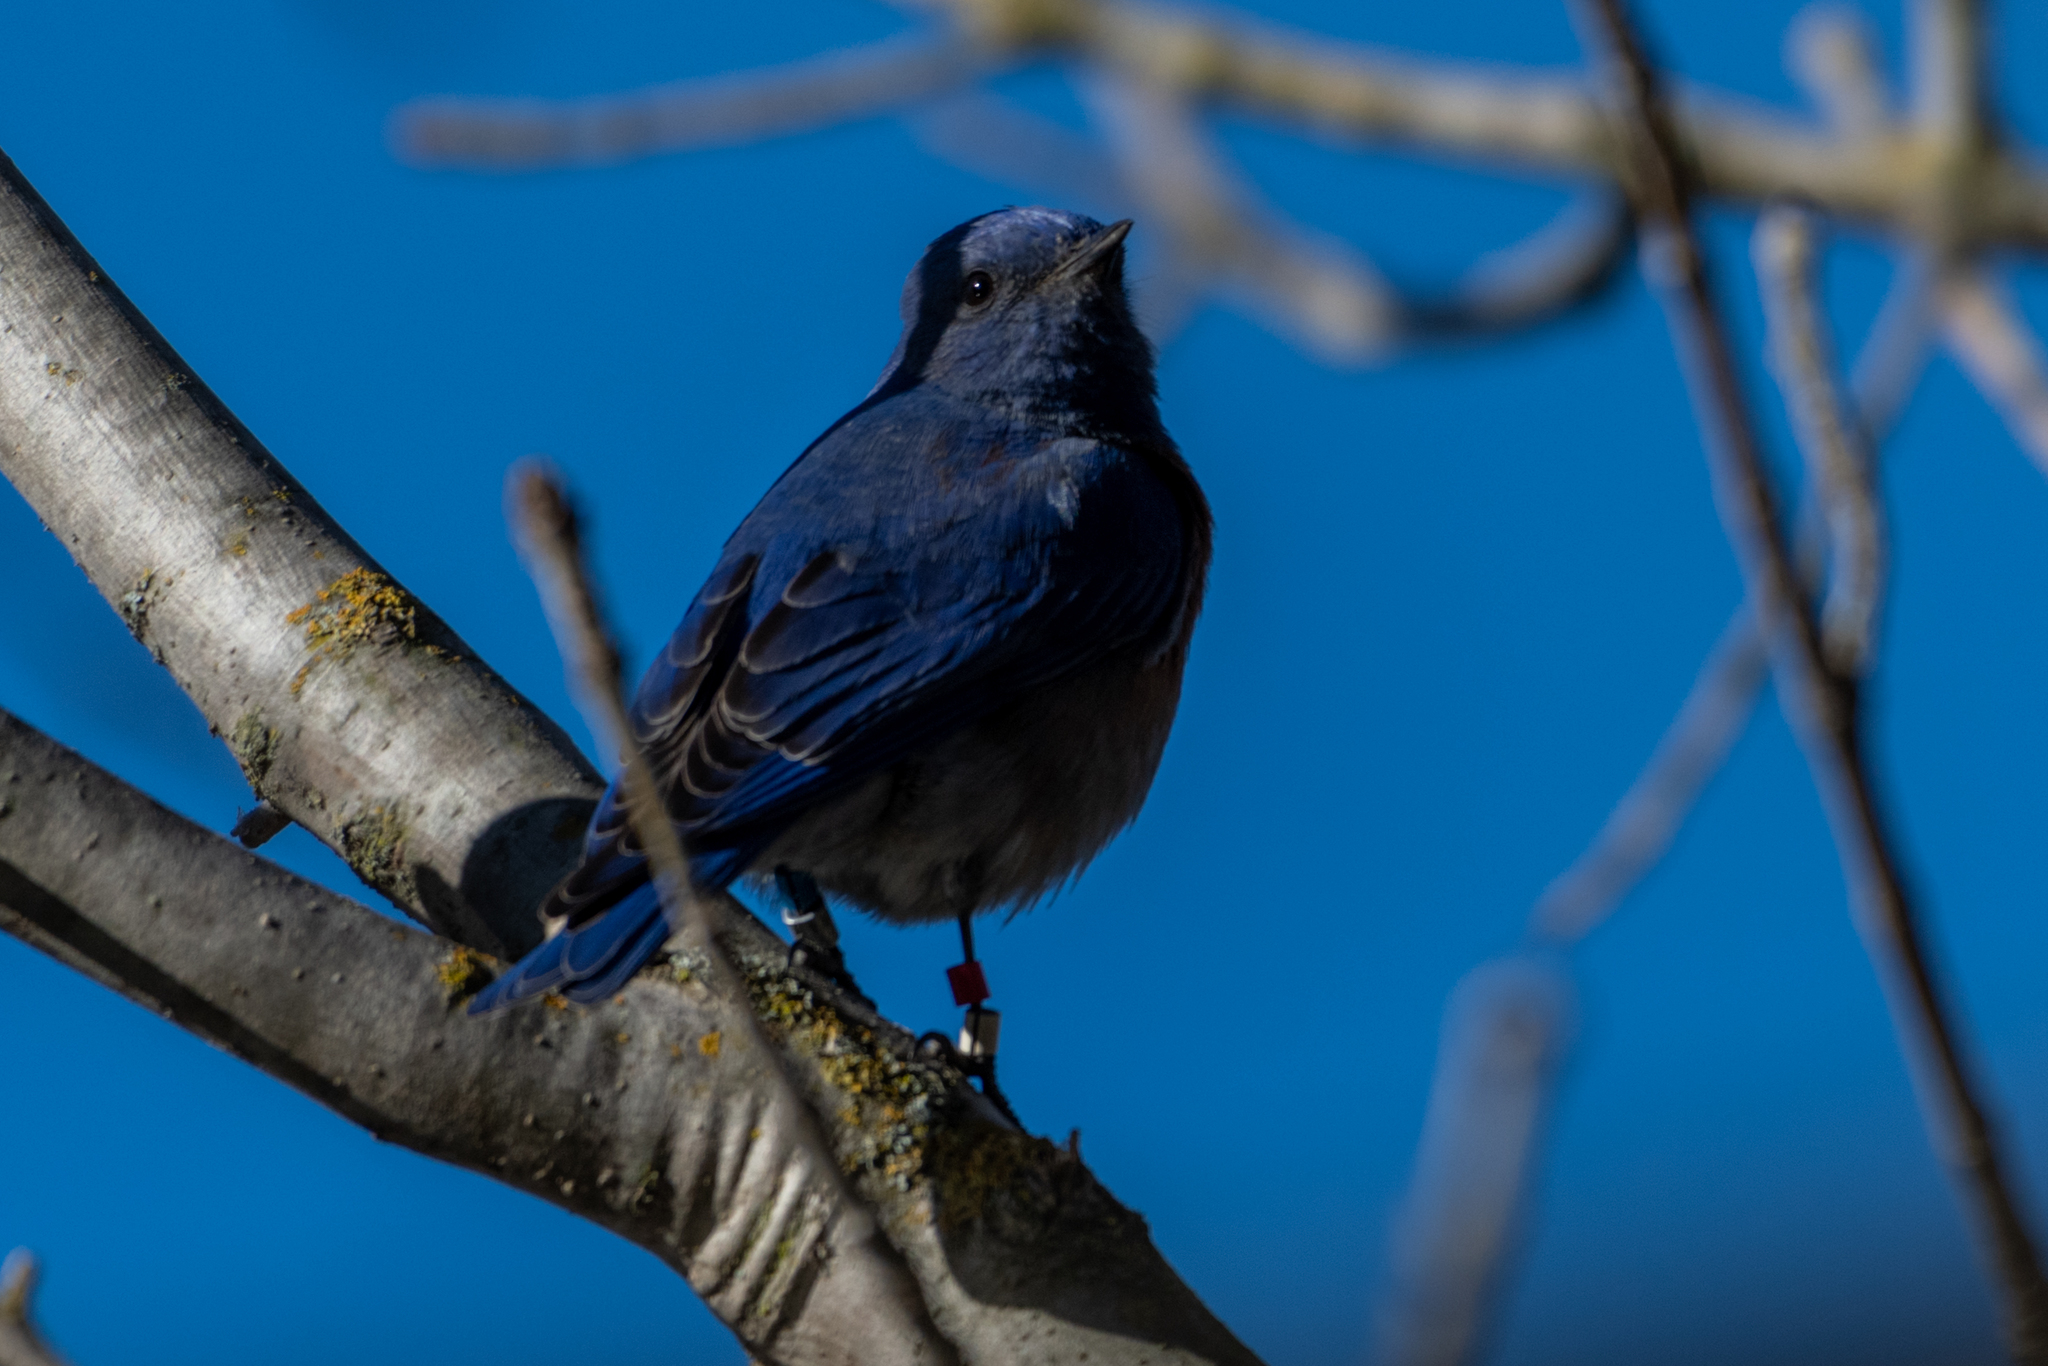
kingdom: Animalia
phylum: Chordata
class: Aves
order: Passeriformes
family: Turdidae
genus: Sialia
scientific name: Sialia mexicana
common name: Western bluebird
